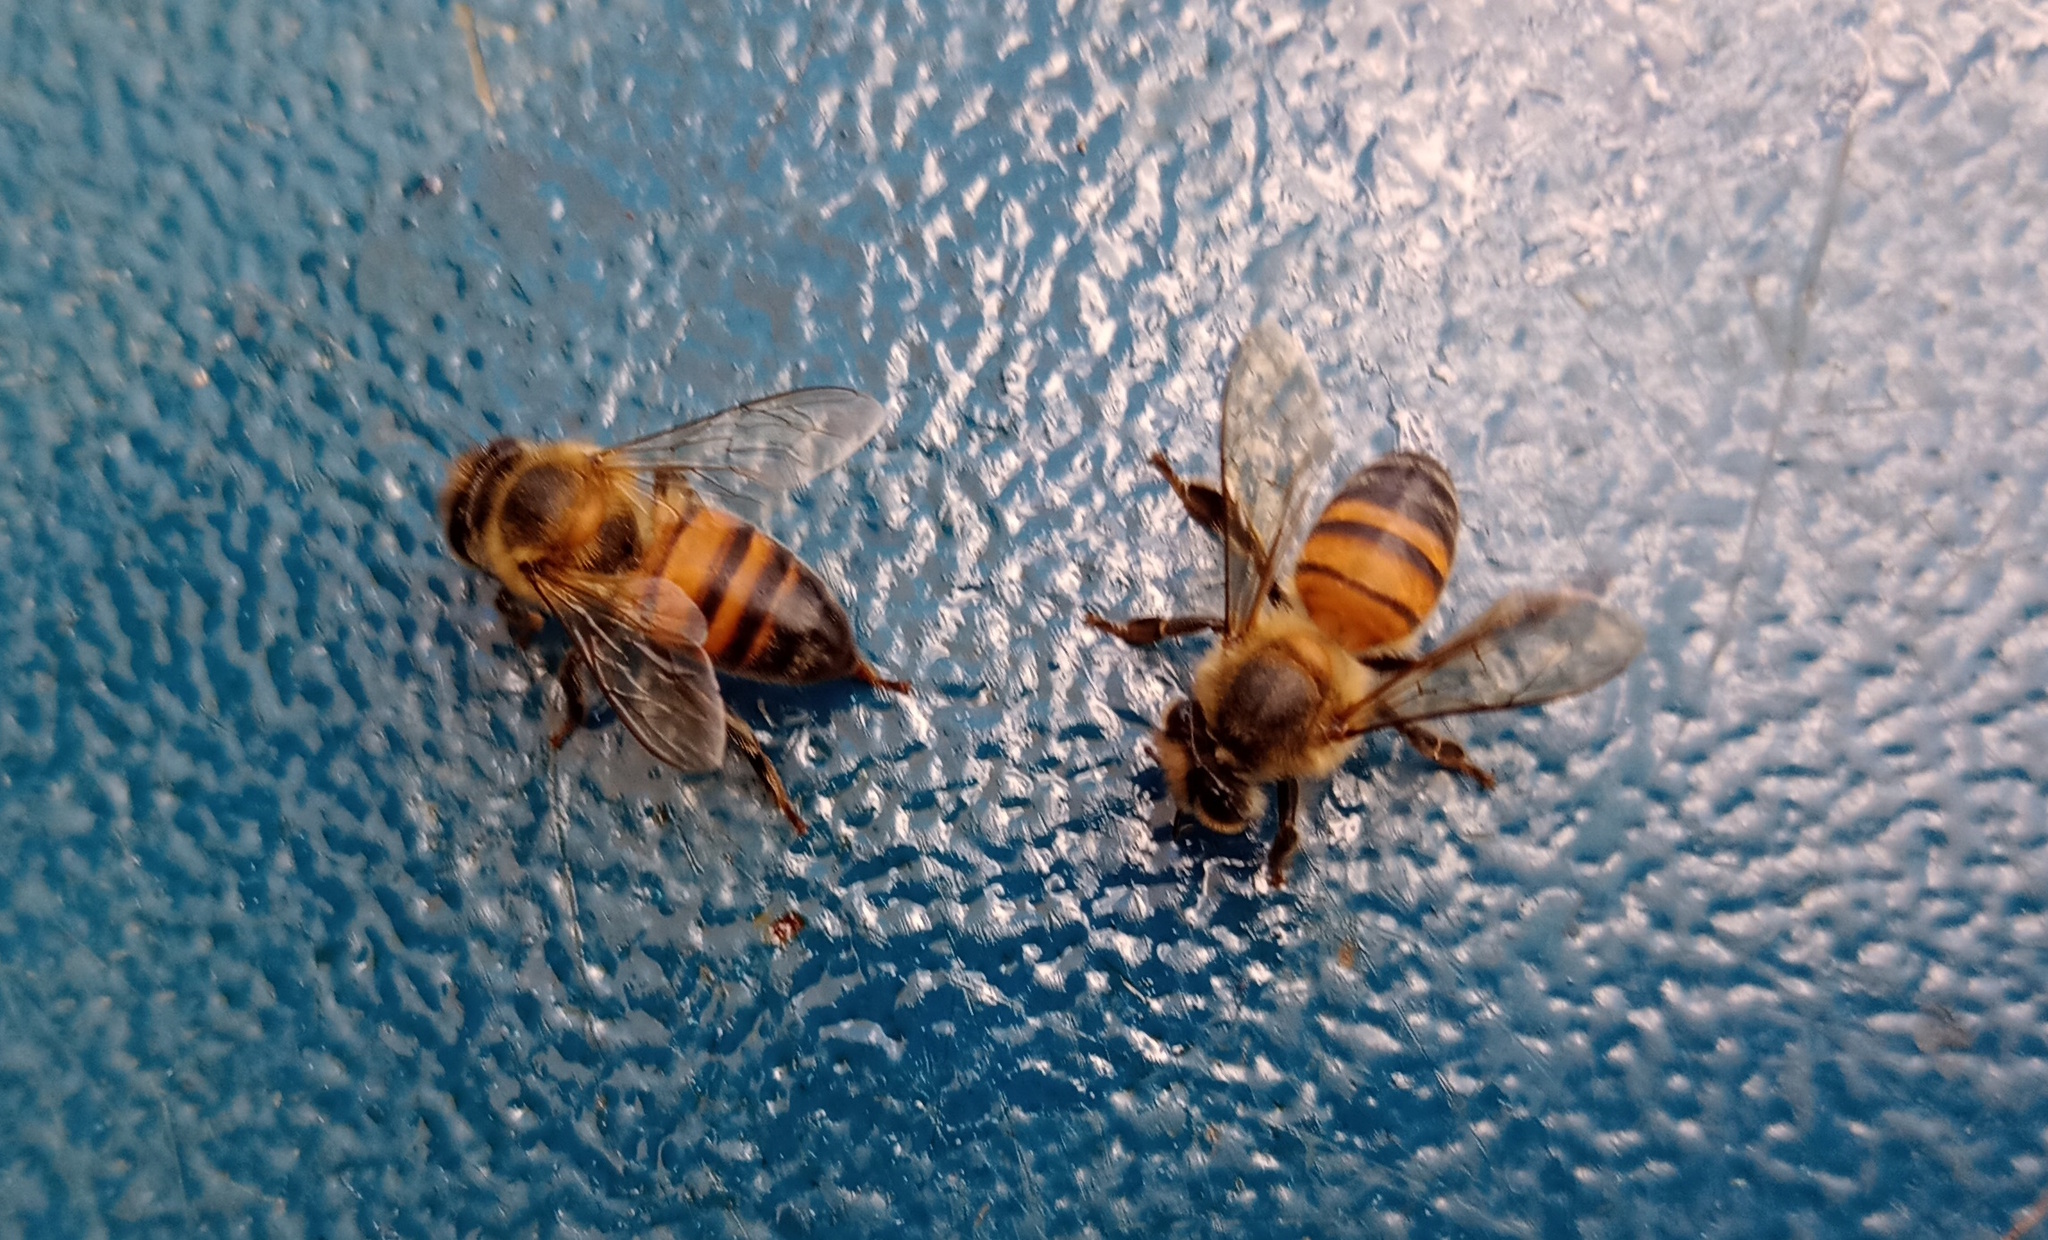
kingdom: Animalia
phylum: Arthropoda
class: Insecta
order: Hymenoptera
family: Apidae
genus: Apis
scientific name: Apis mellifera
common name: Honey bee
